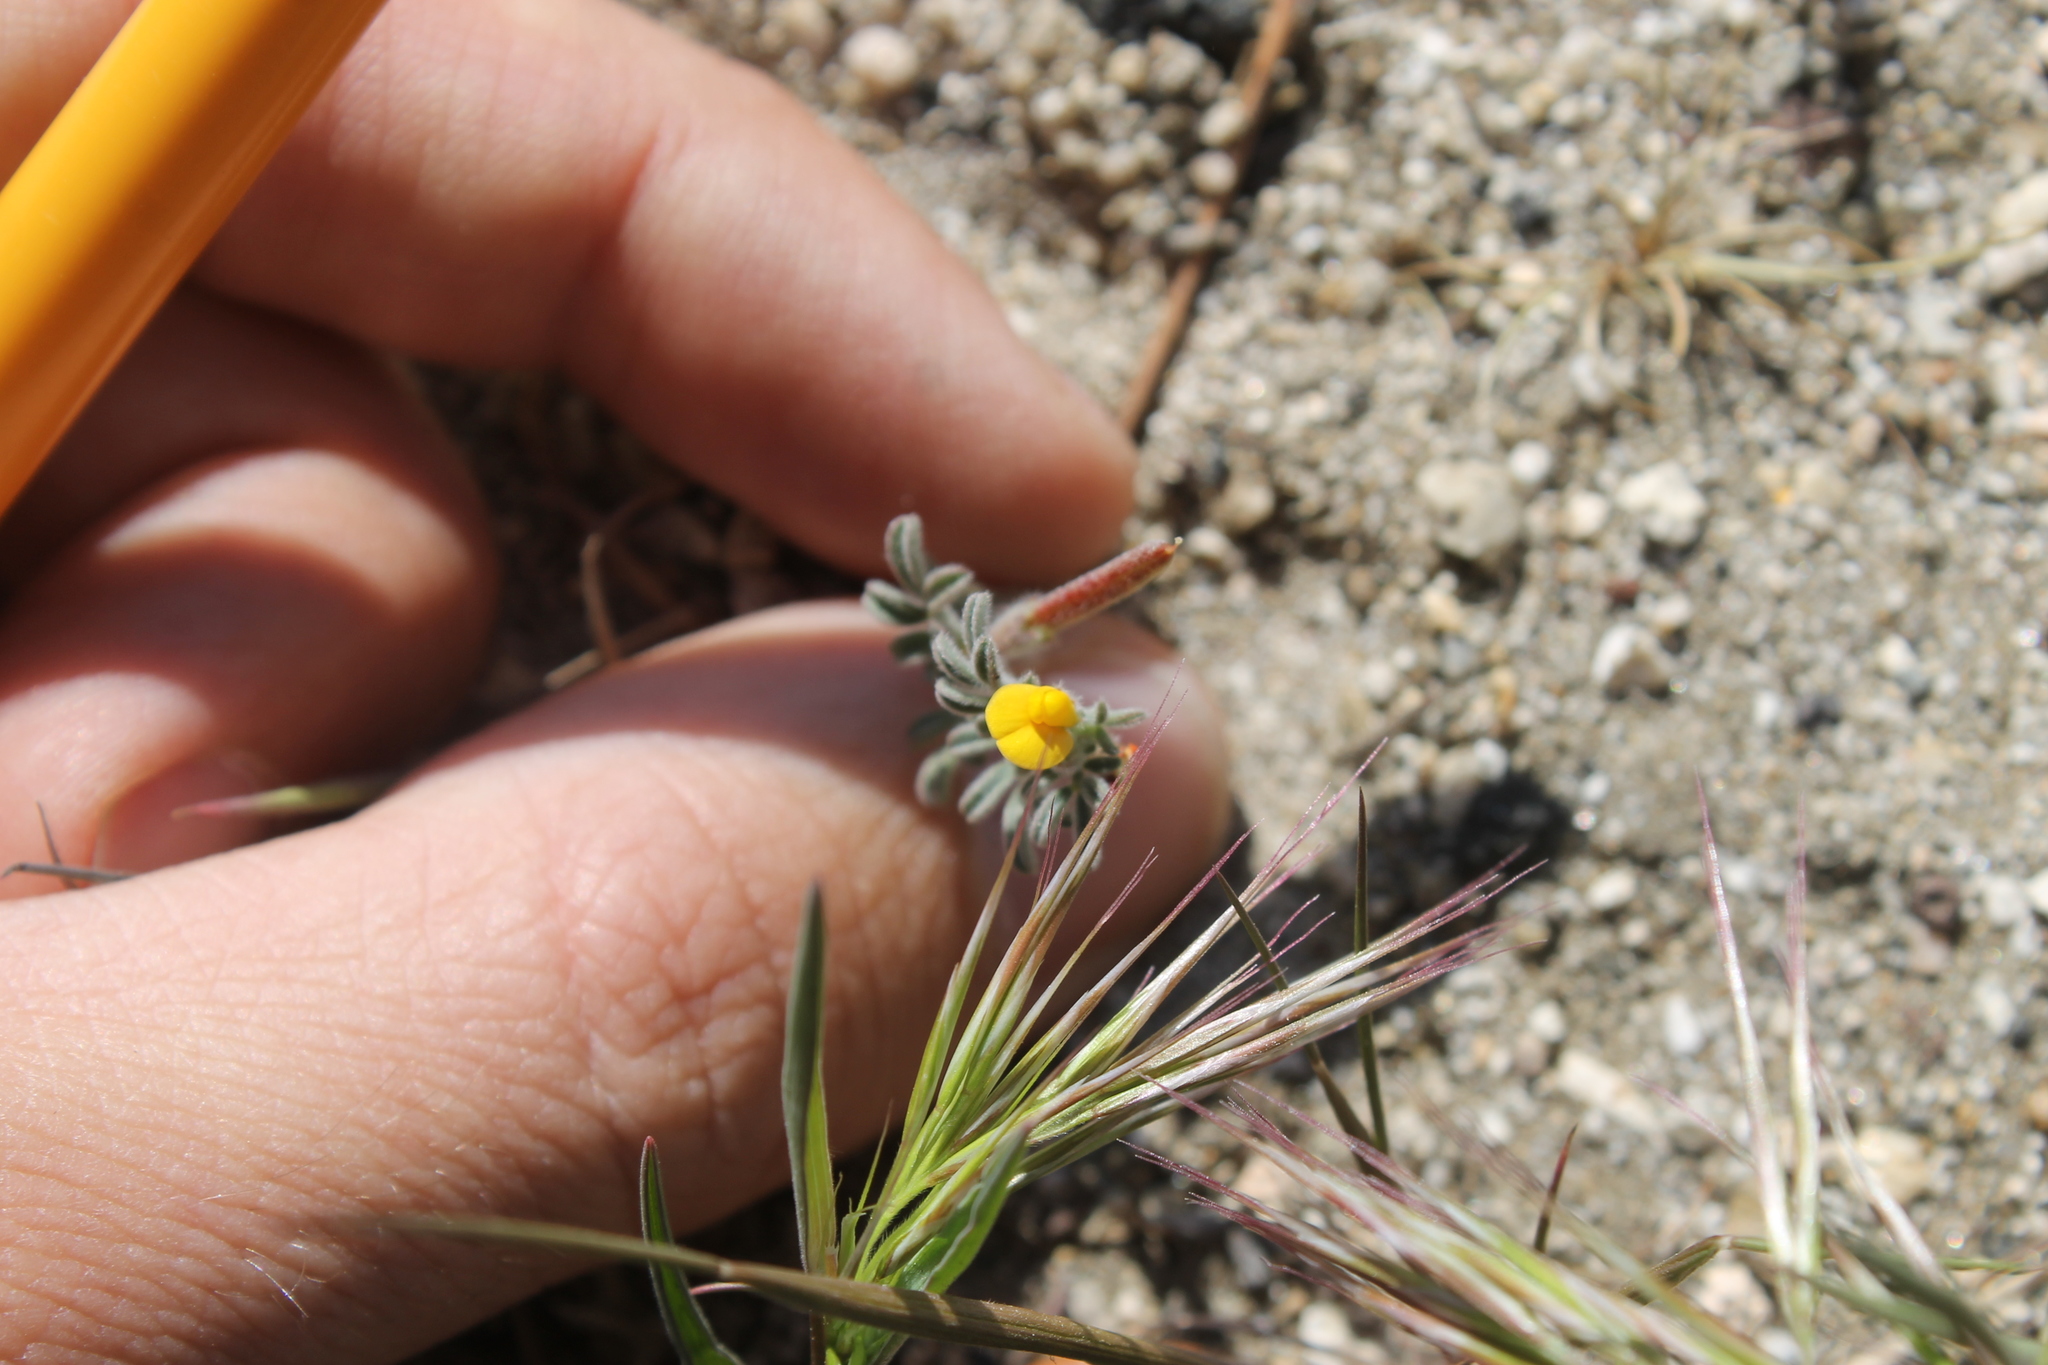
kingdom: Plantae
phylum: Tracheophyta
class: Magnoliopsida
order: Fabales
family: Fabaceae
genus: Acmispon
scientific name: Acmispon strigosus
